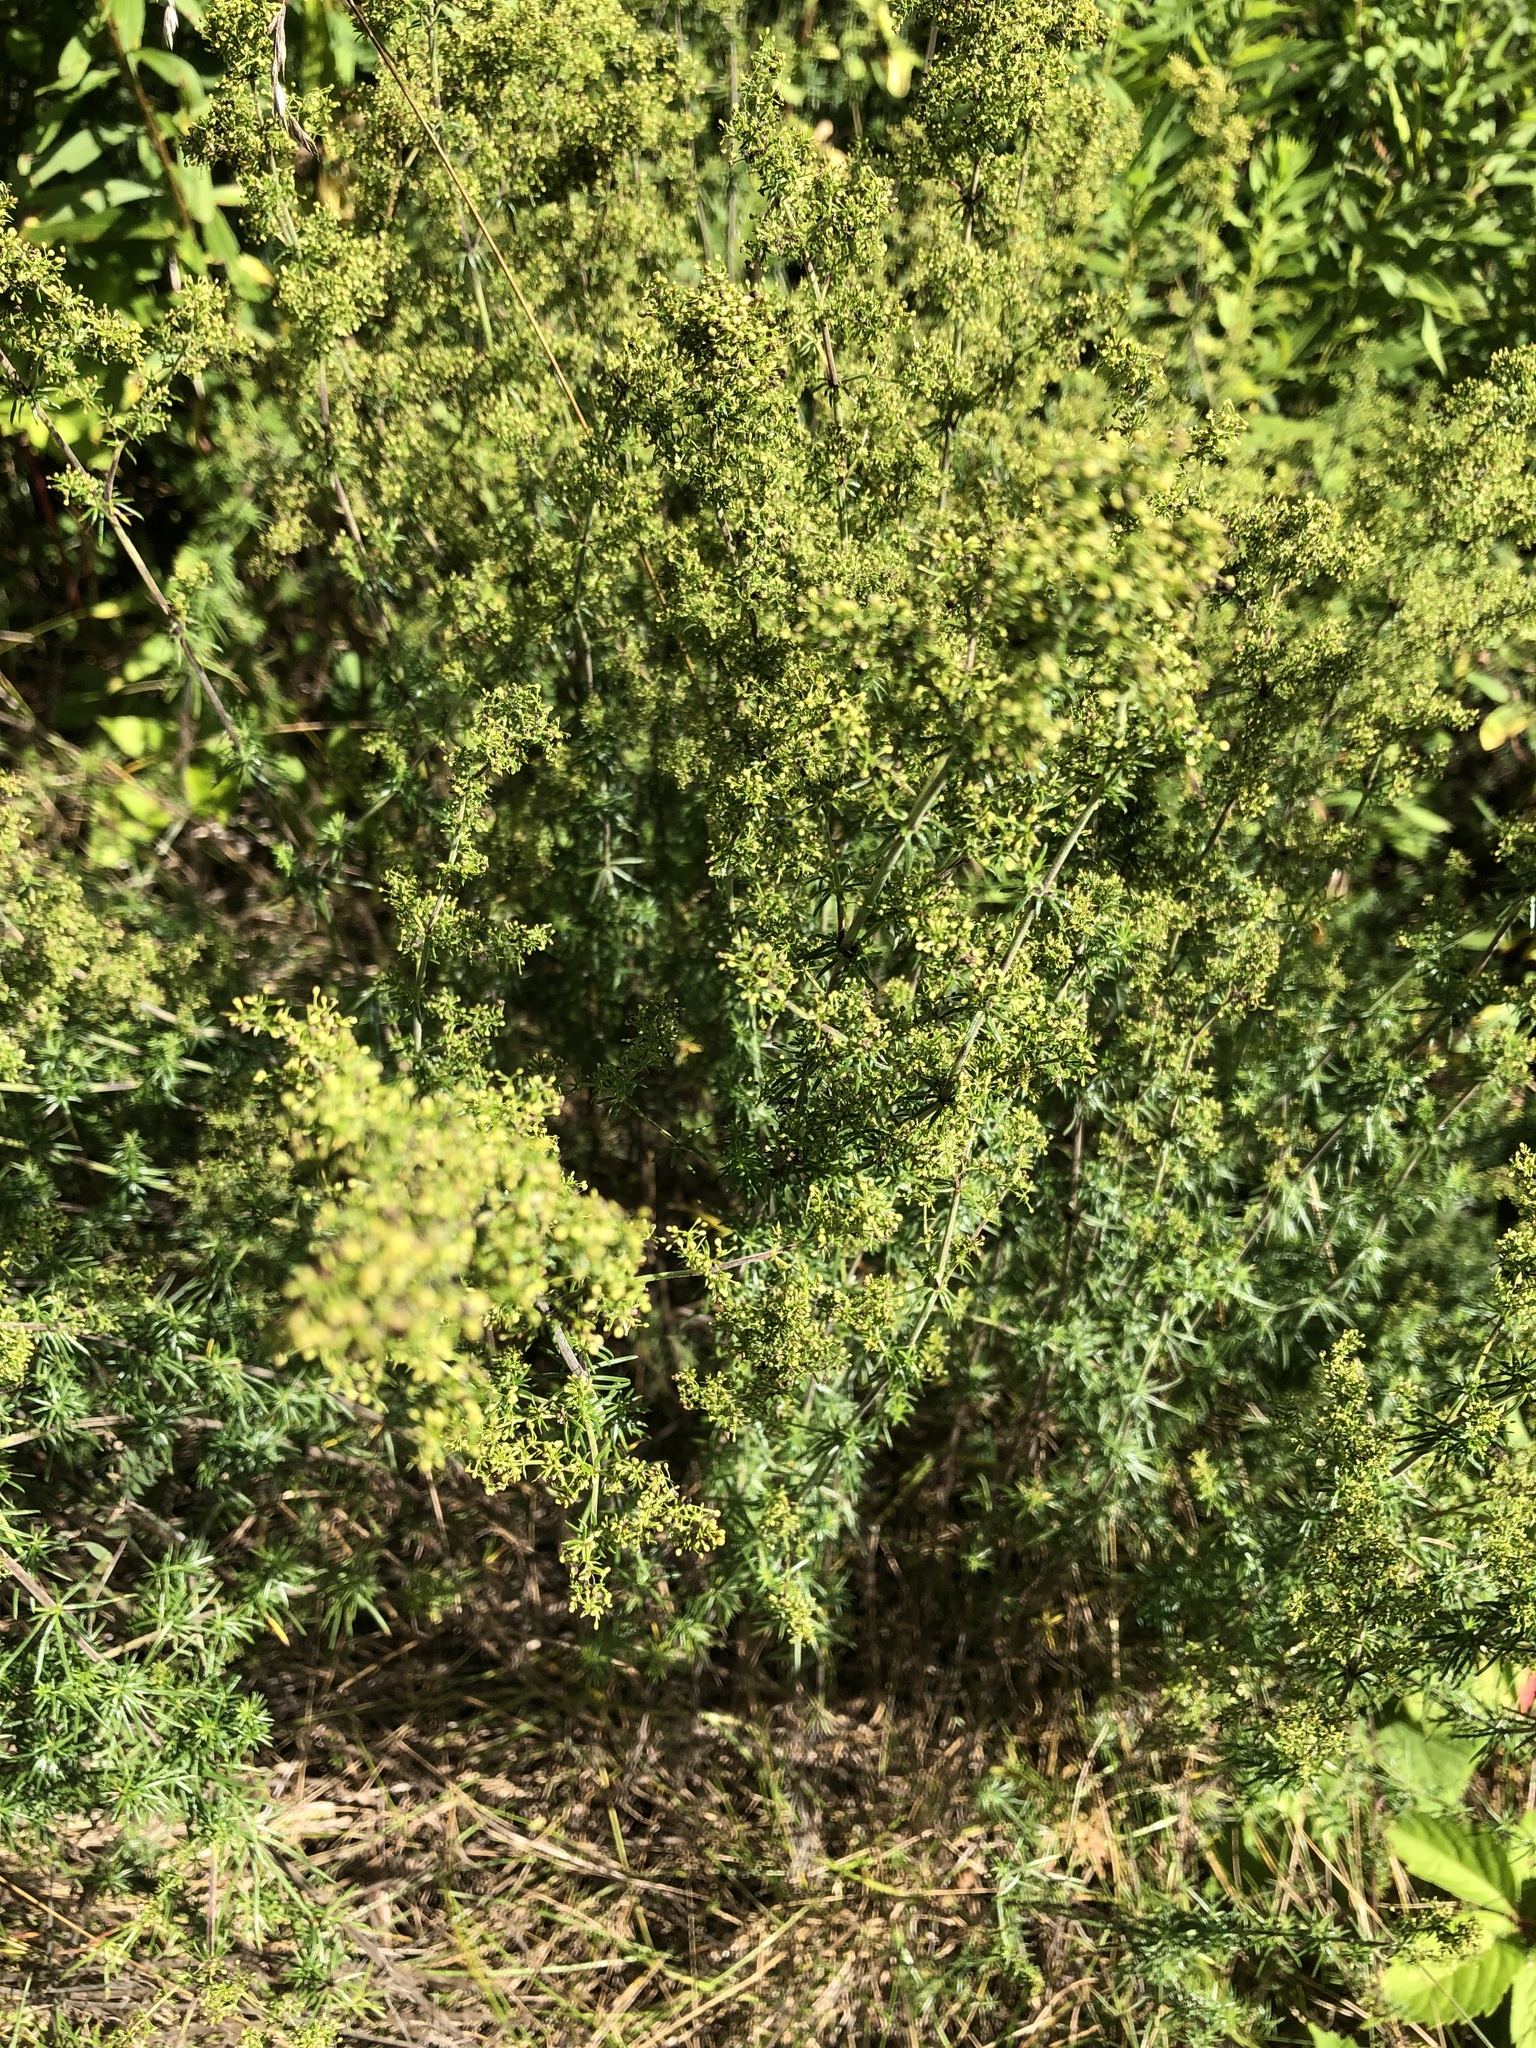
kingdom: Plantae
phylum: Tracheophyta
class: Magnoliopsida
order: Gentianales
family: Rubiaceae
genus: Galium
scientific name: Galium verum
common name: Lady's bedstraw
